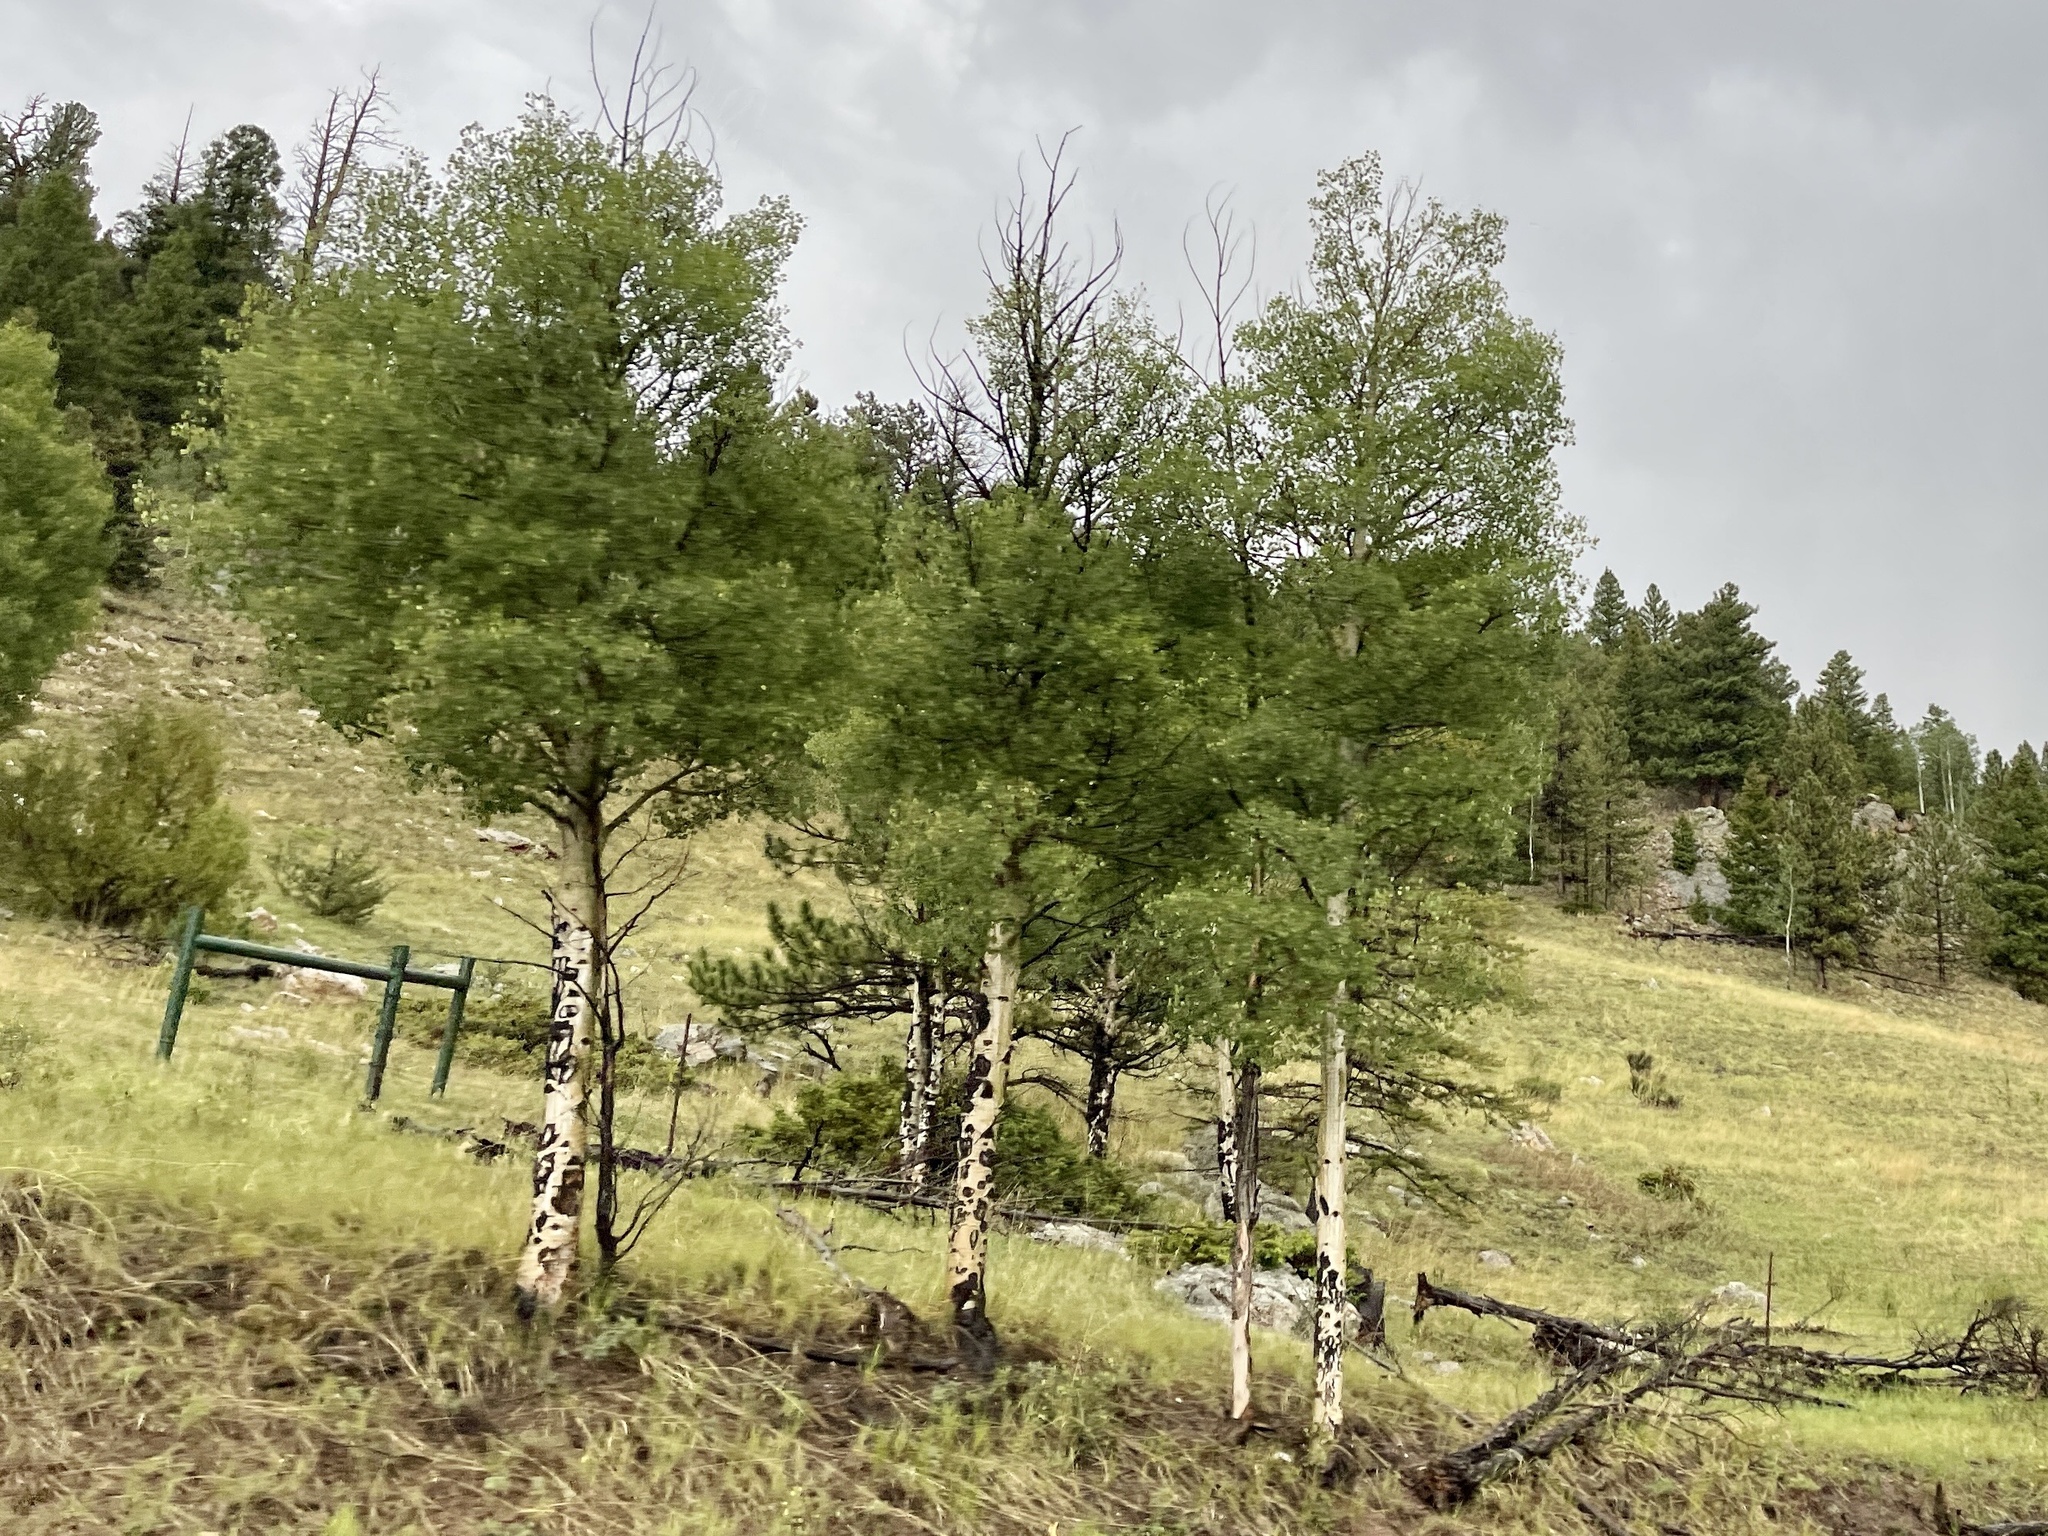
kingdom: Plantae
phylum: Tracheophyta
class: Magnoliopsida
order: Malpighiales
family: Salicaceae
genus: Populus
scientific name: Populus tremuloides
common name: Quaking aspen
